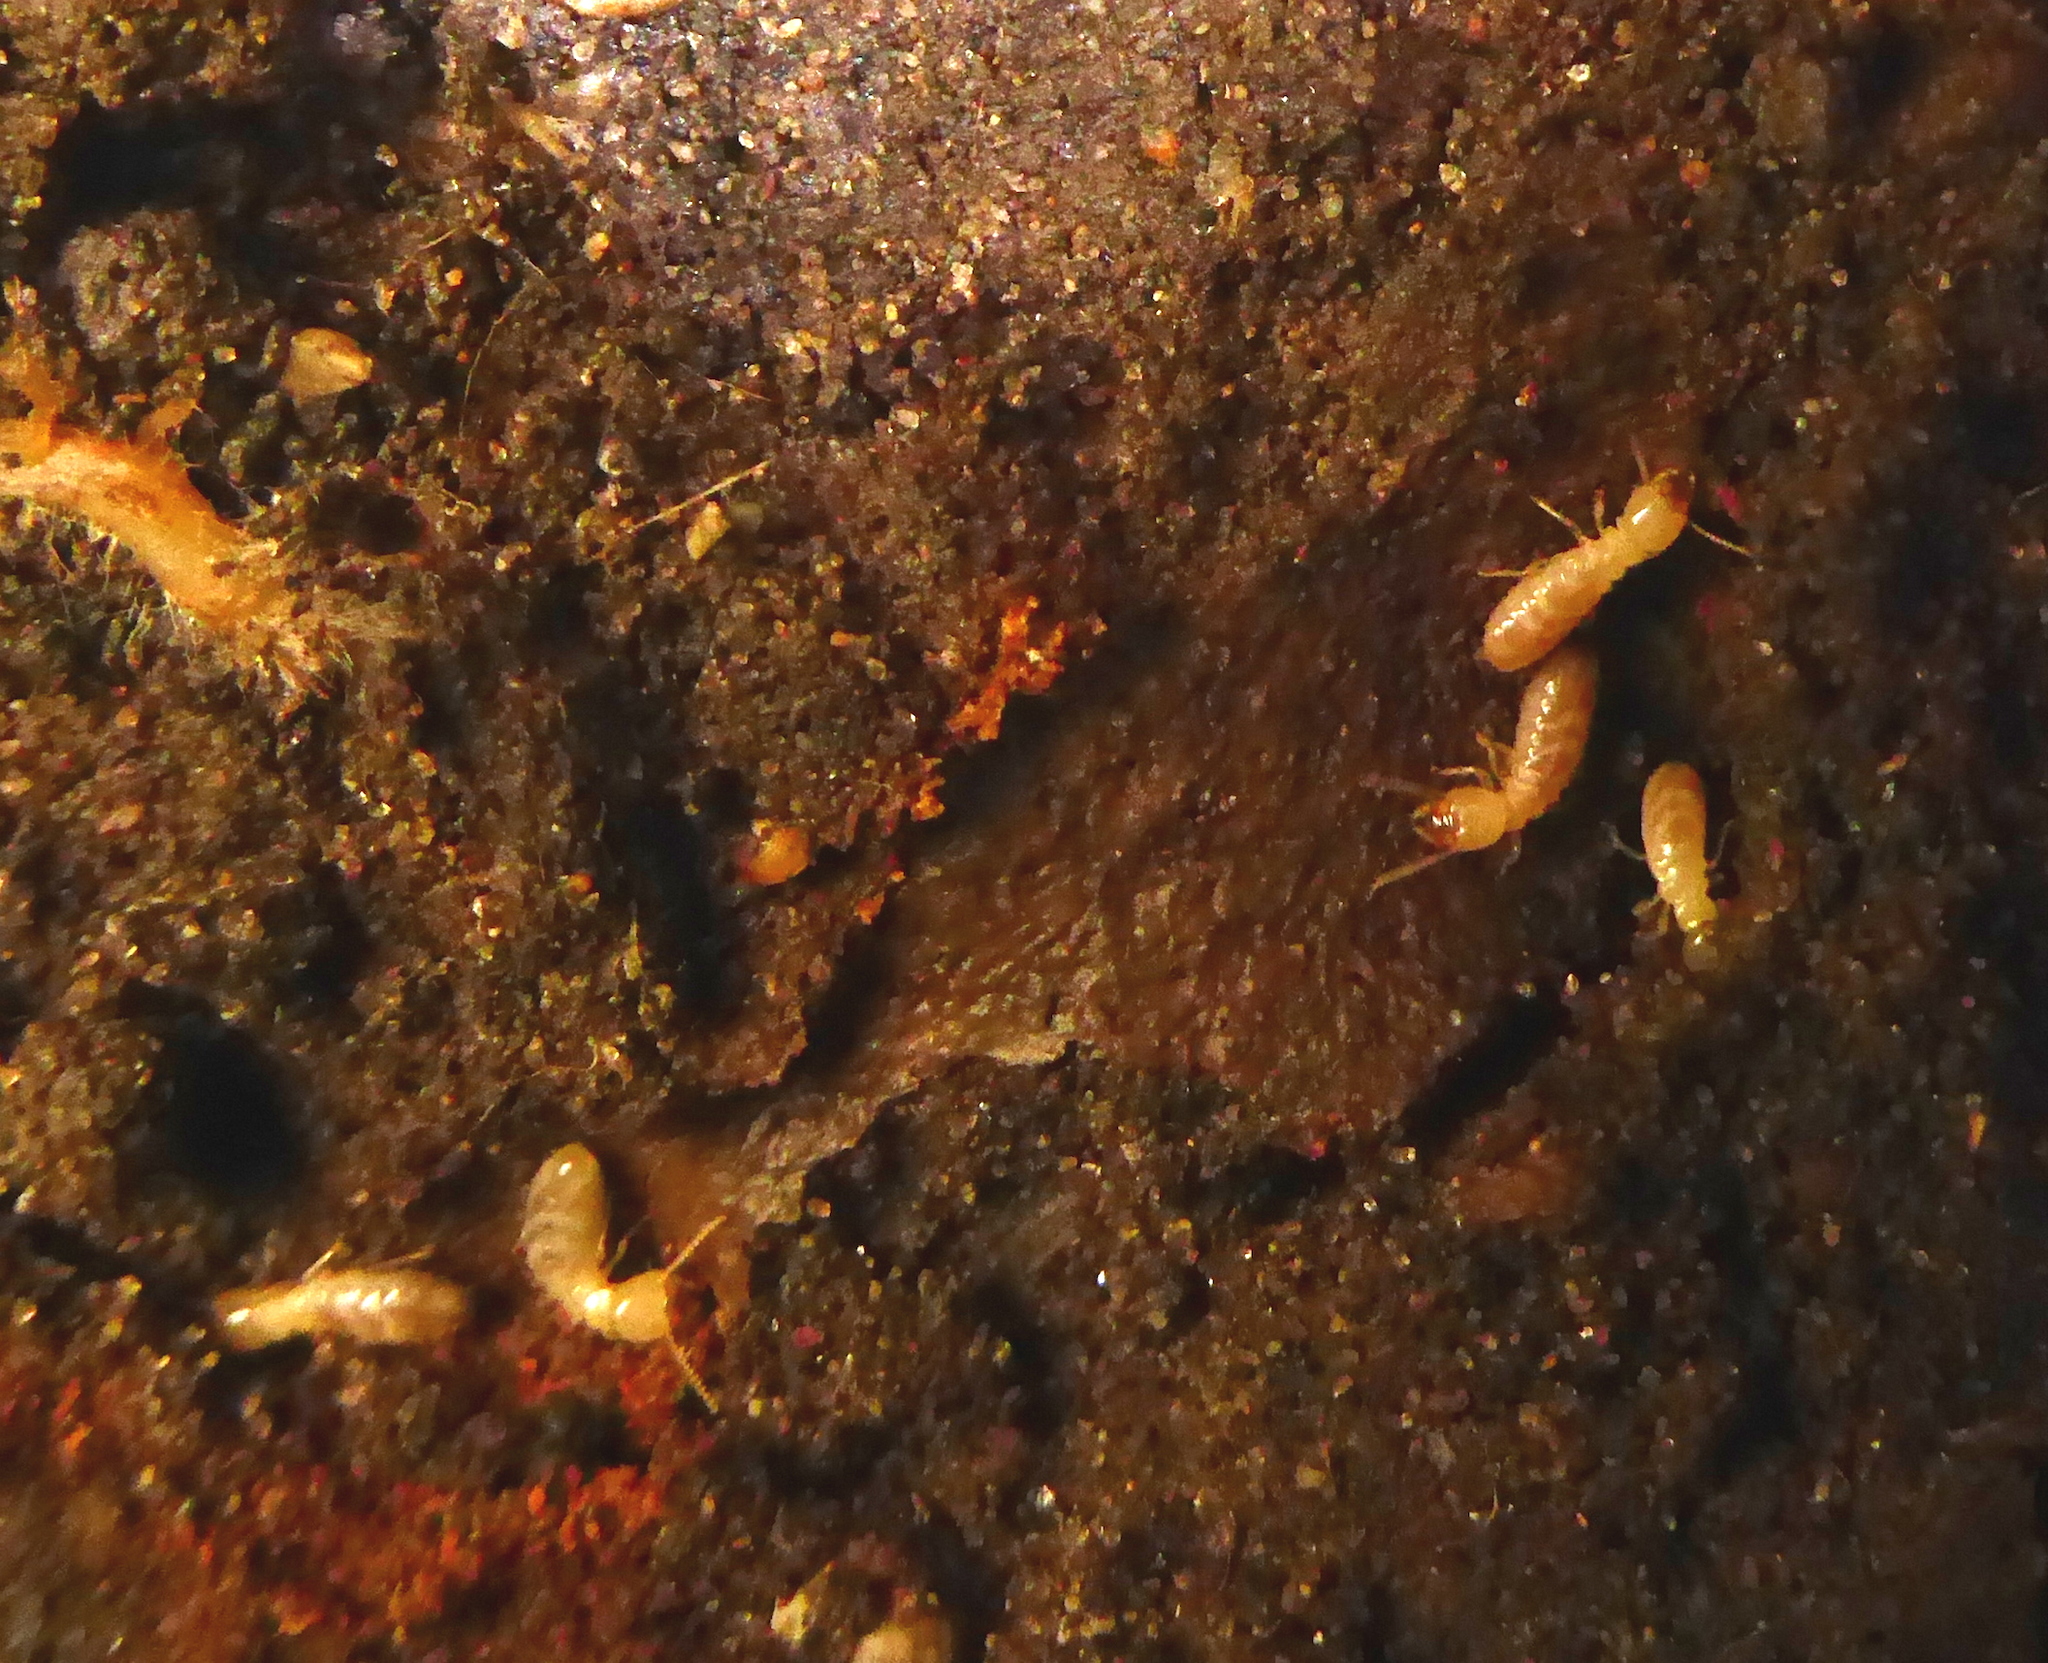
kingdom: Animalia
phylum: Arthropoda
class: Insecta
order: Blattodea
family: Rhinotermitidae
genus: Reticulitermes
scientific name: Reticulitermes hesperus
